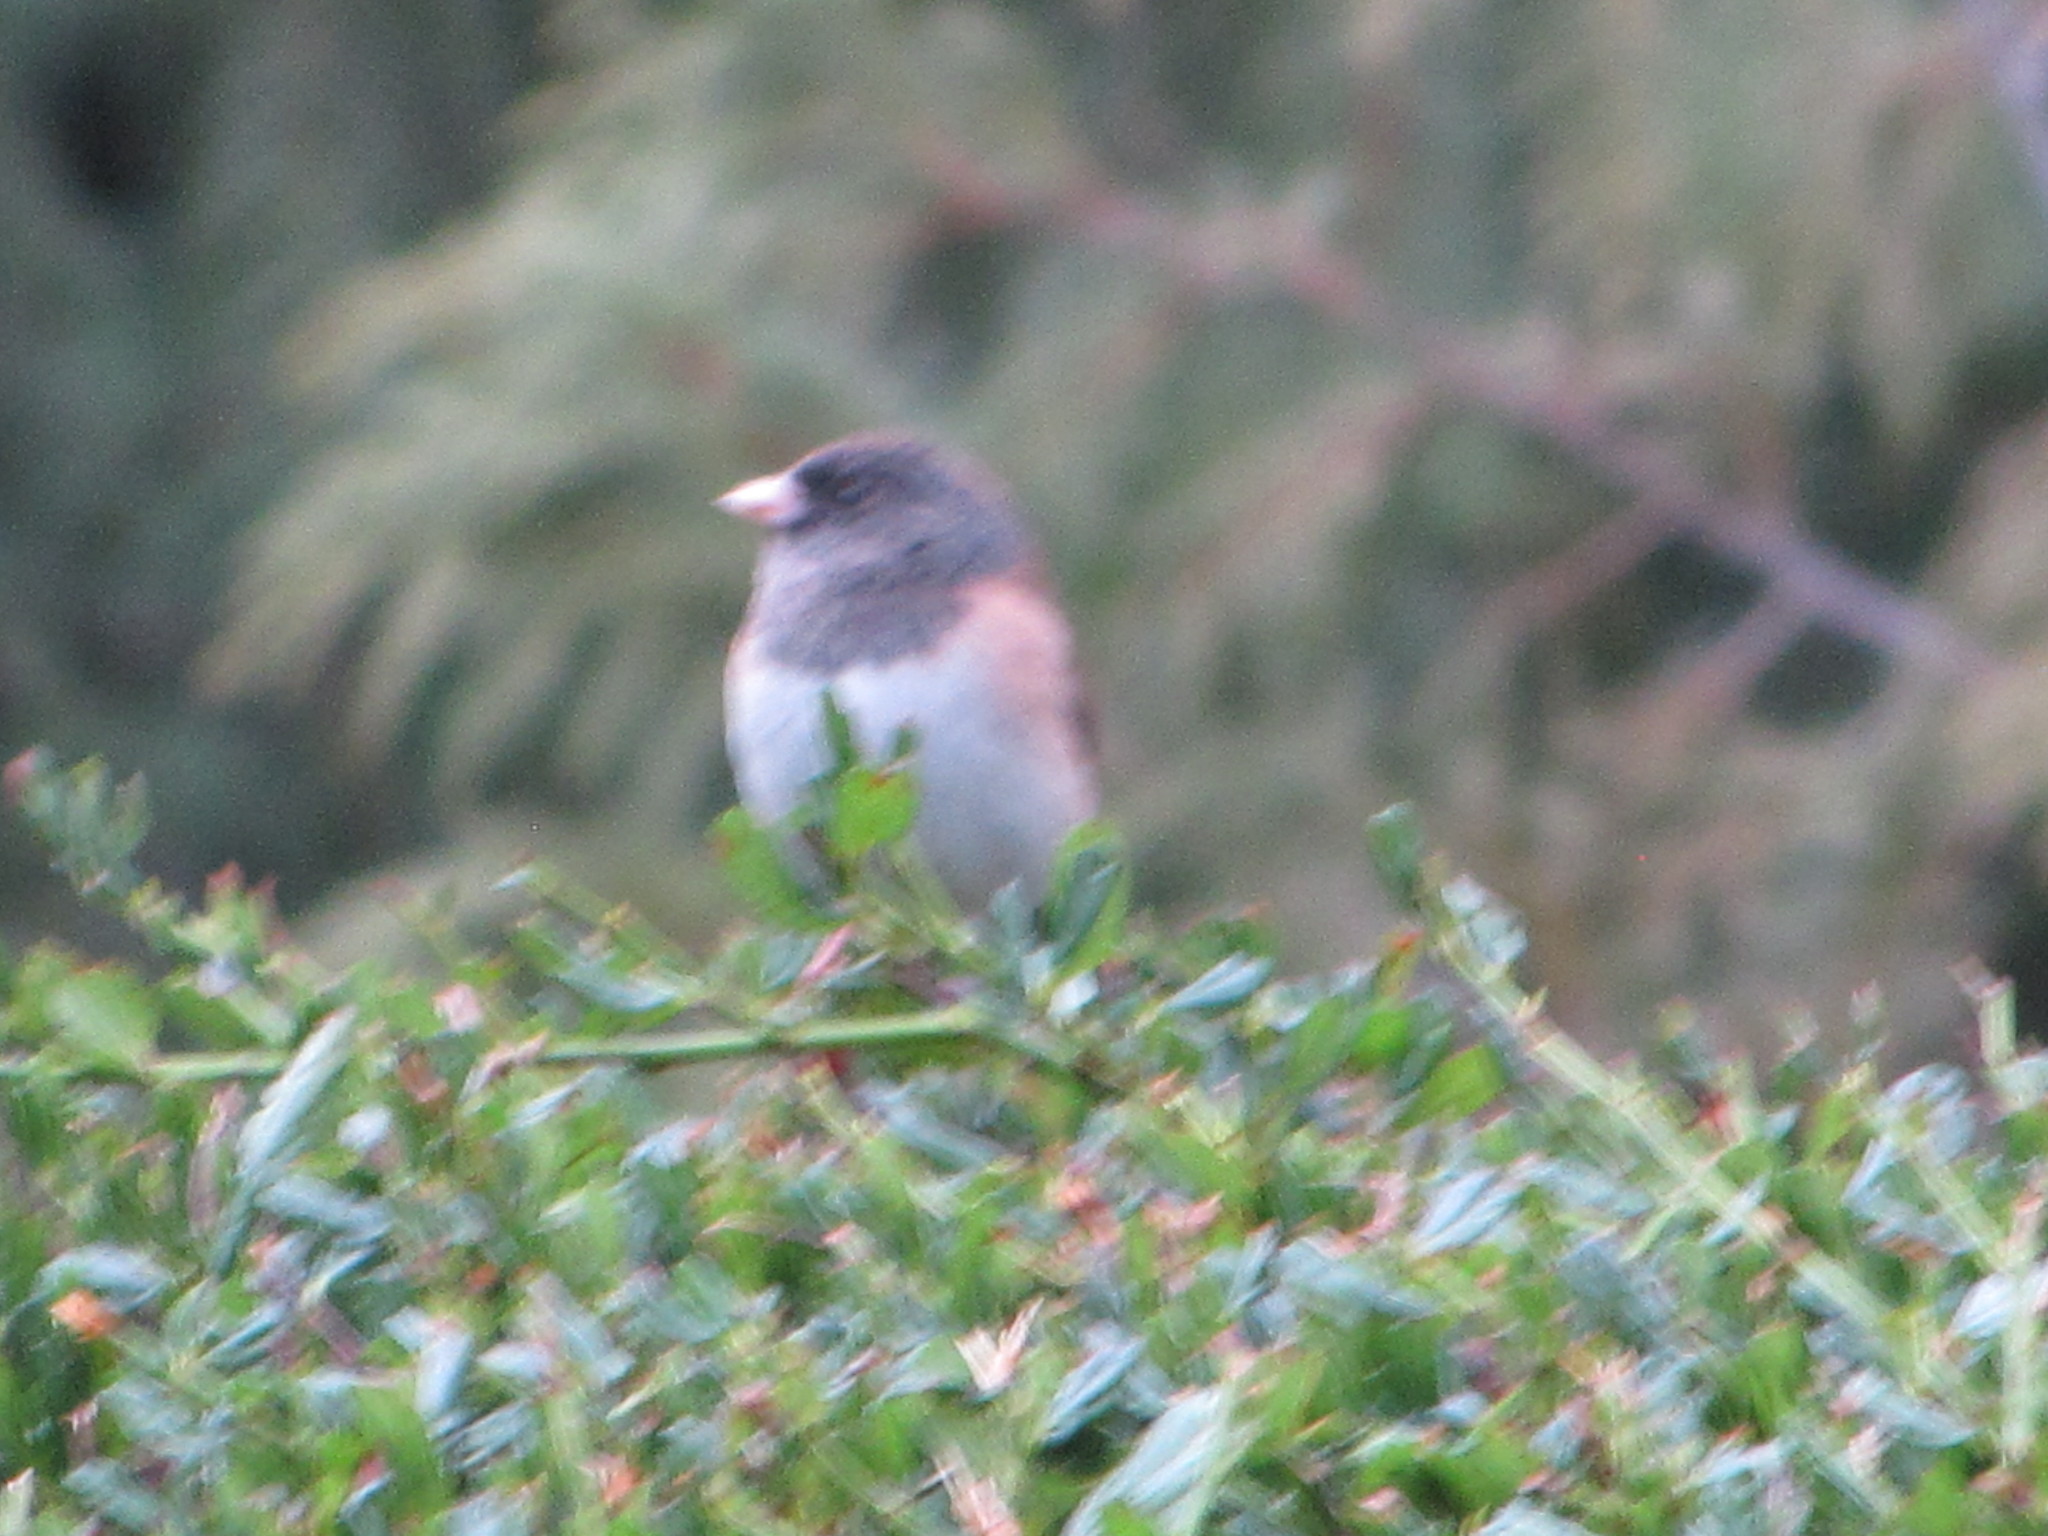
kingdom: Animalia
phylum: Chordata
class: Aves
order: Passeriformes
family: Passerellidae
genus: Junco
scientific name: Junco hyemalis
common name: Dark-eyed junco
